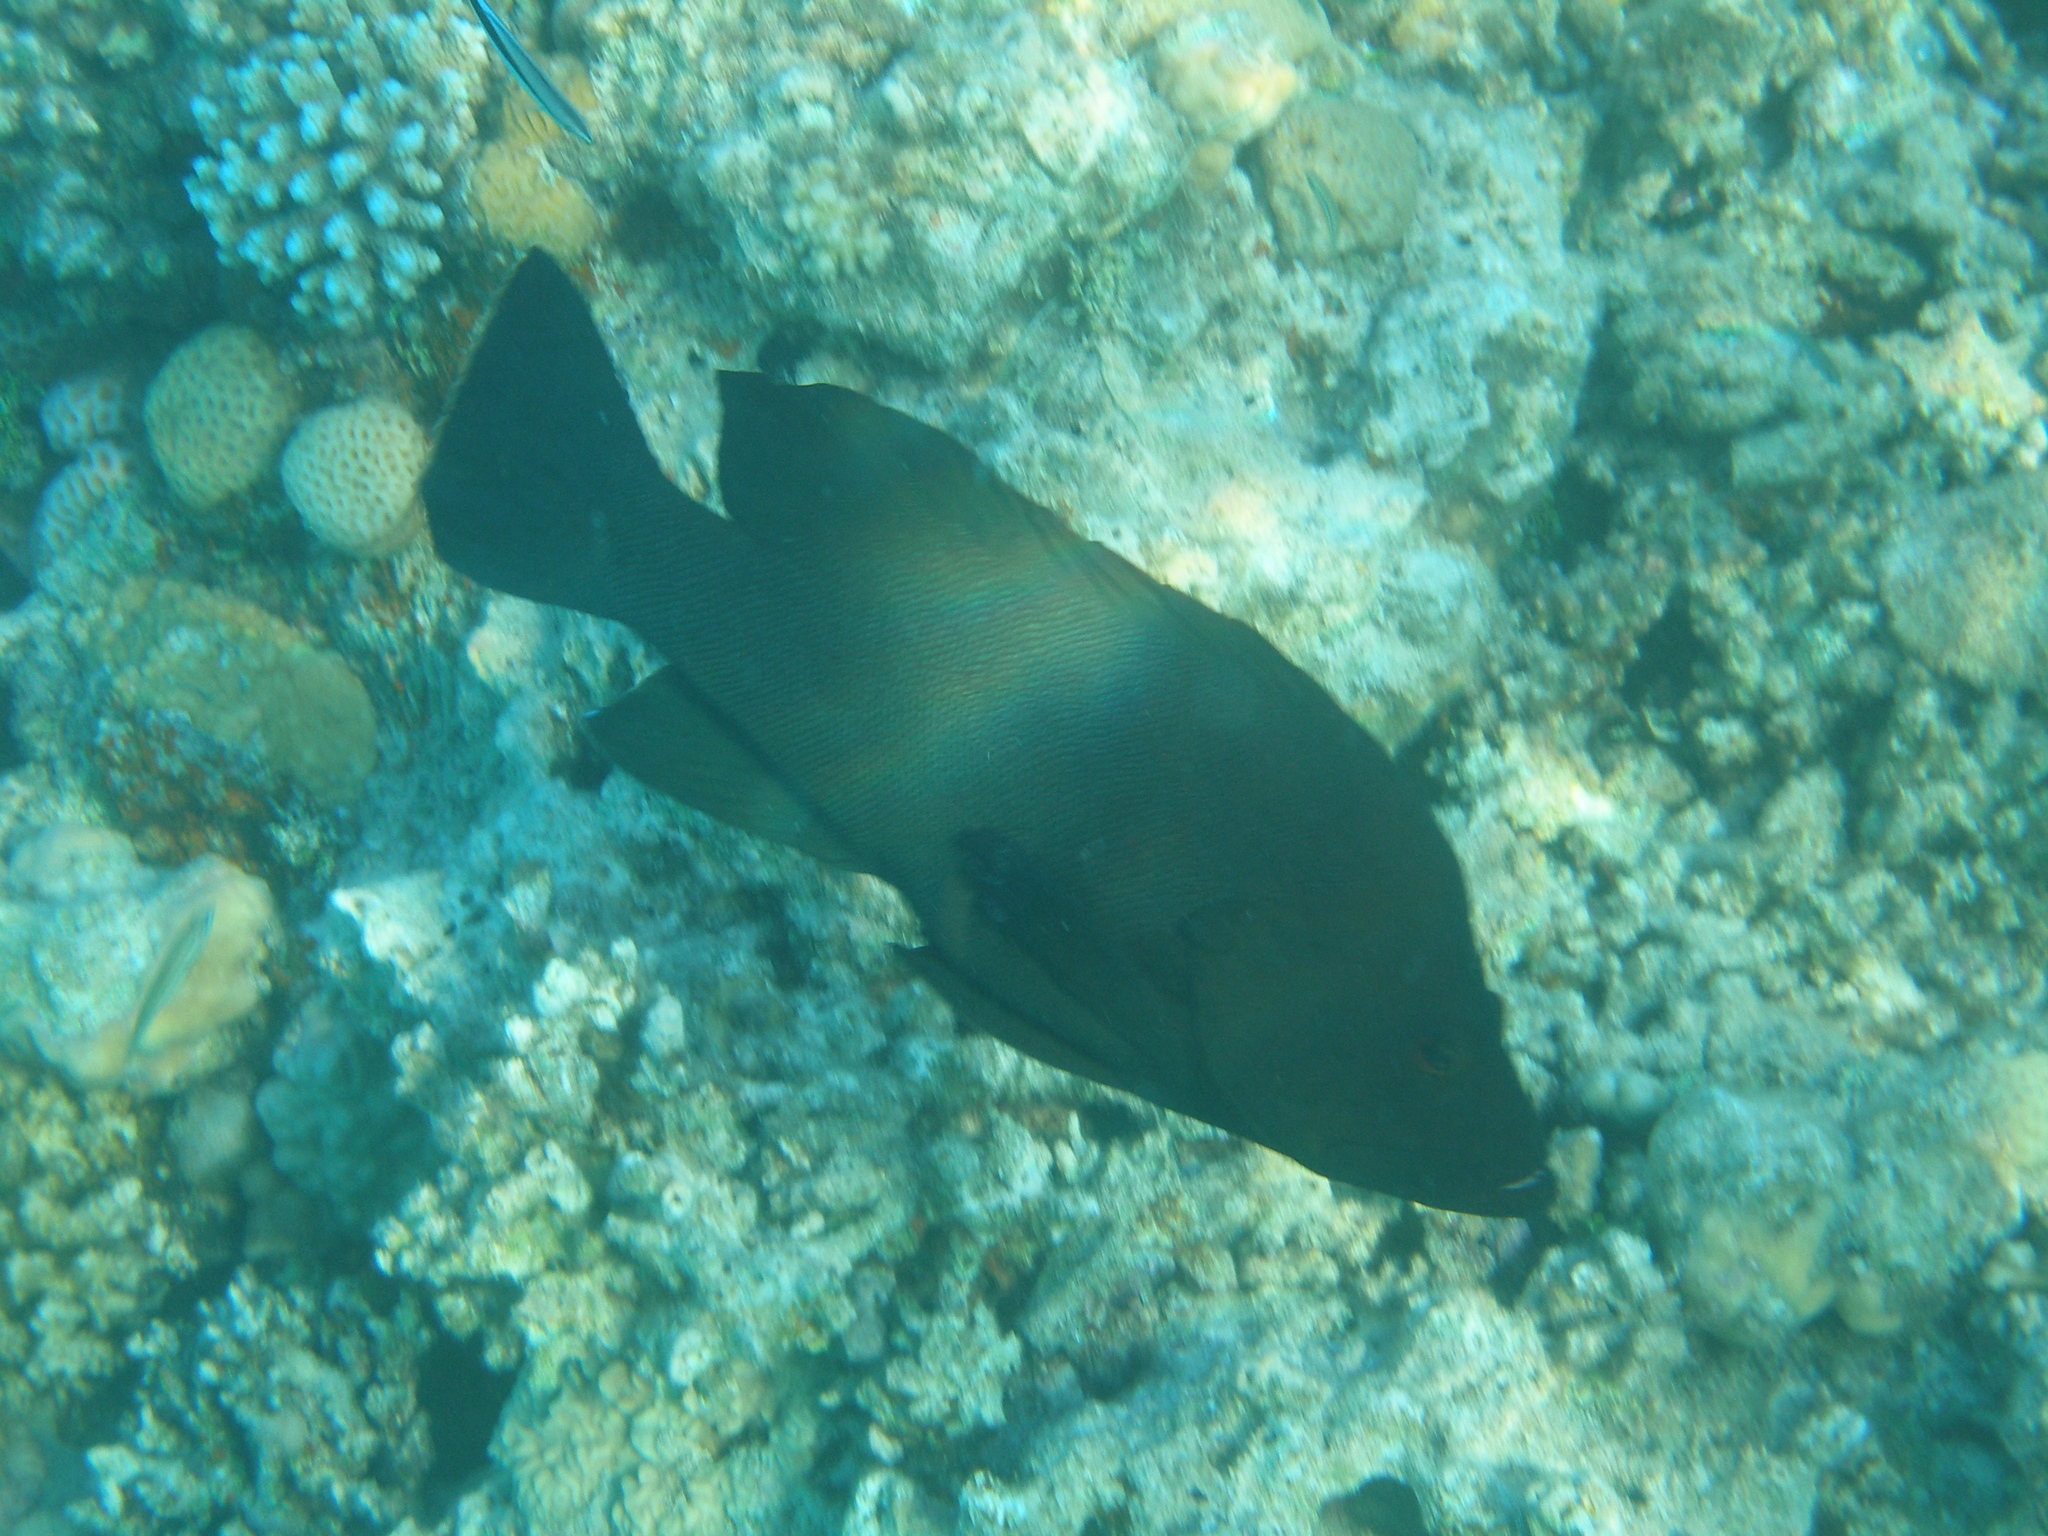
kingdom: Animalia
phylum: Chordata
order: Perciformes
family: Serranidae
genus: Aethaloperca
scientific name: Aethaloperca rogaa
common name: Redmouth grouper
